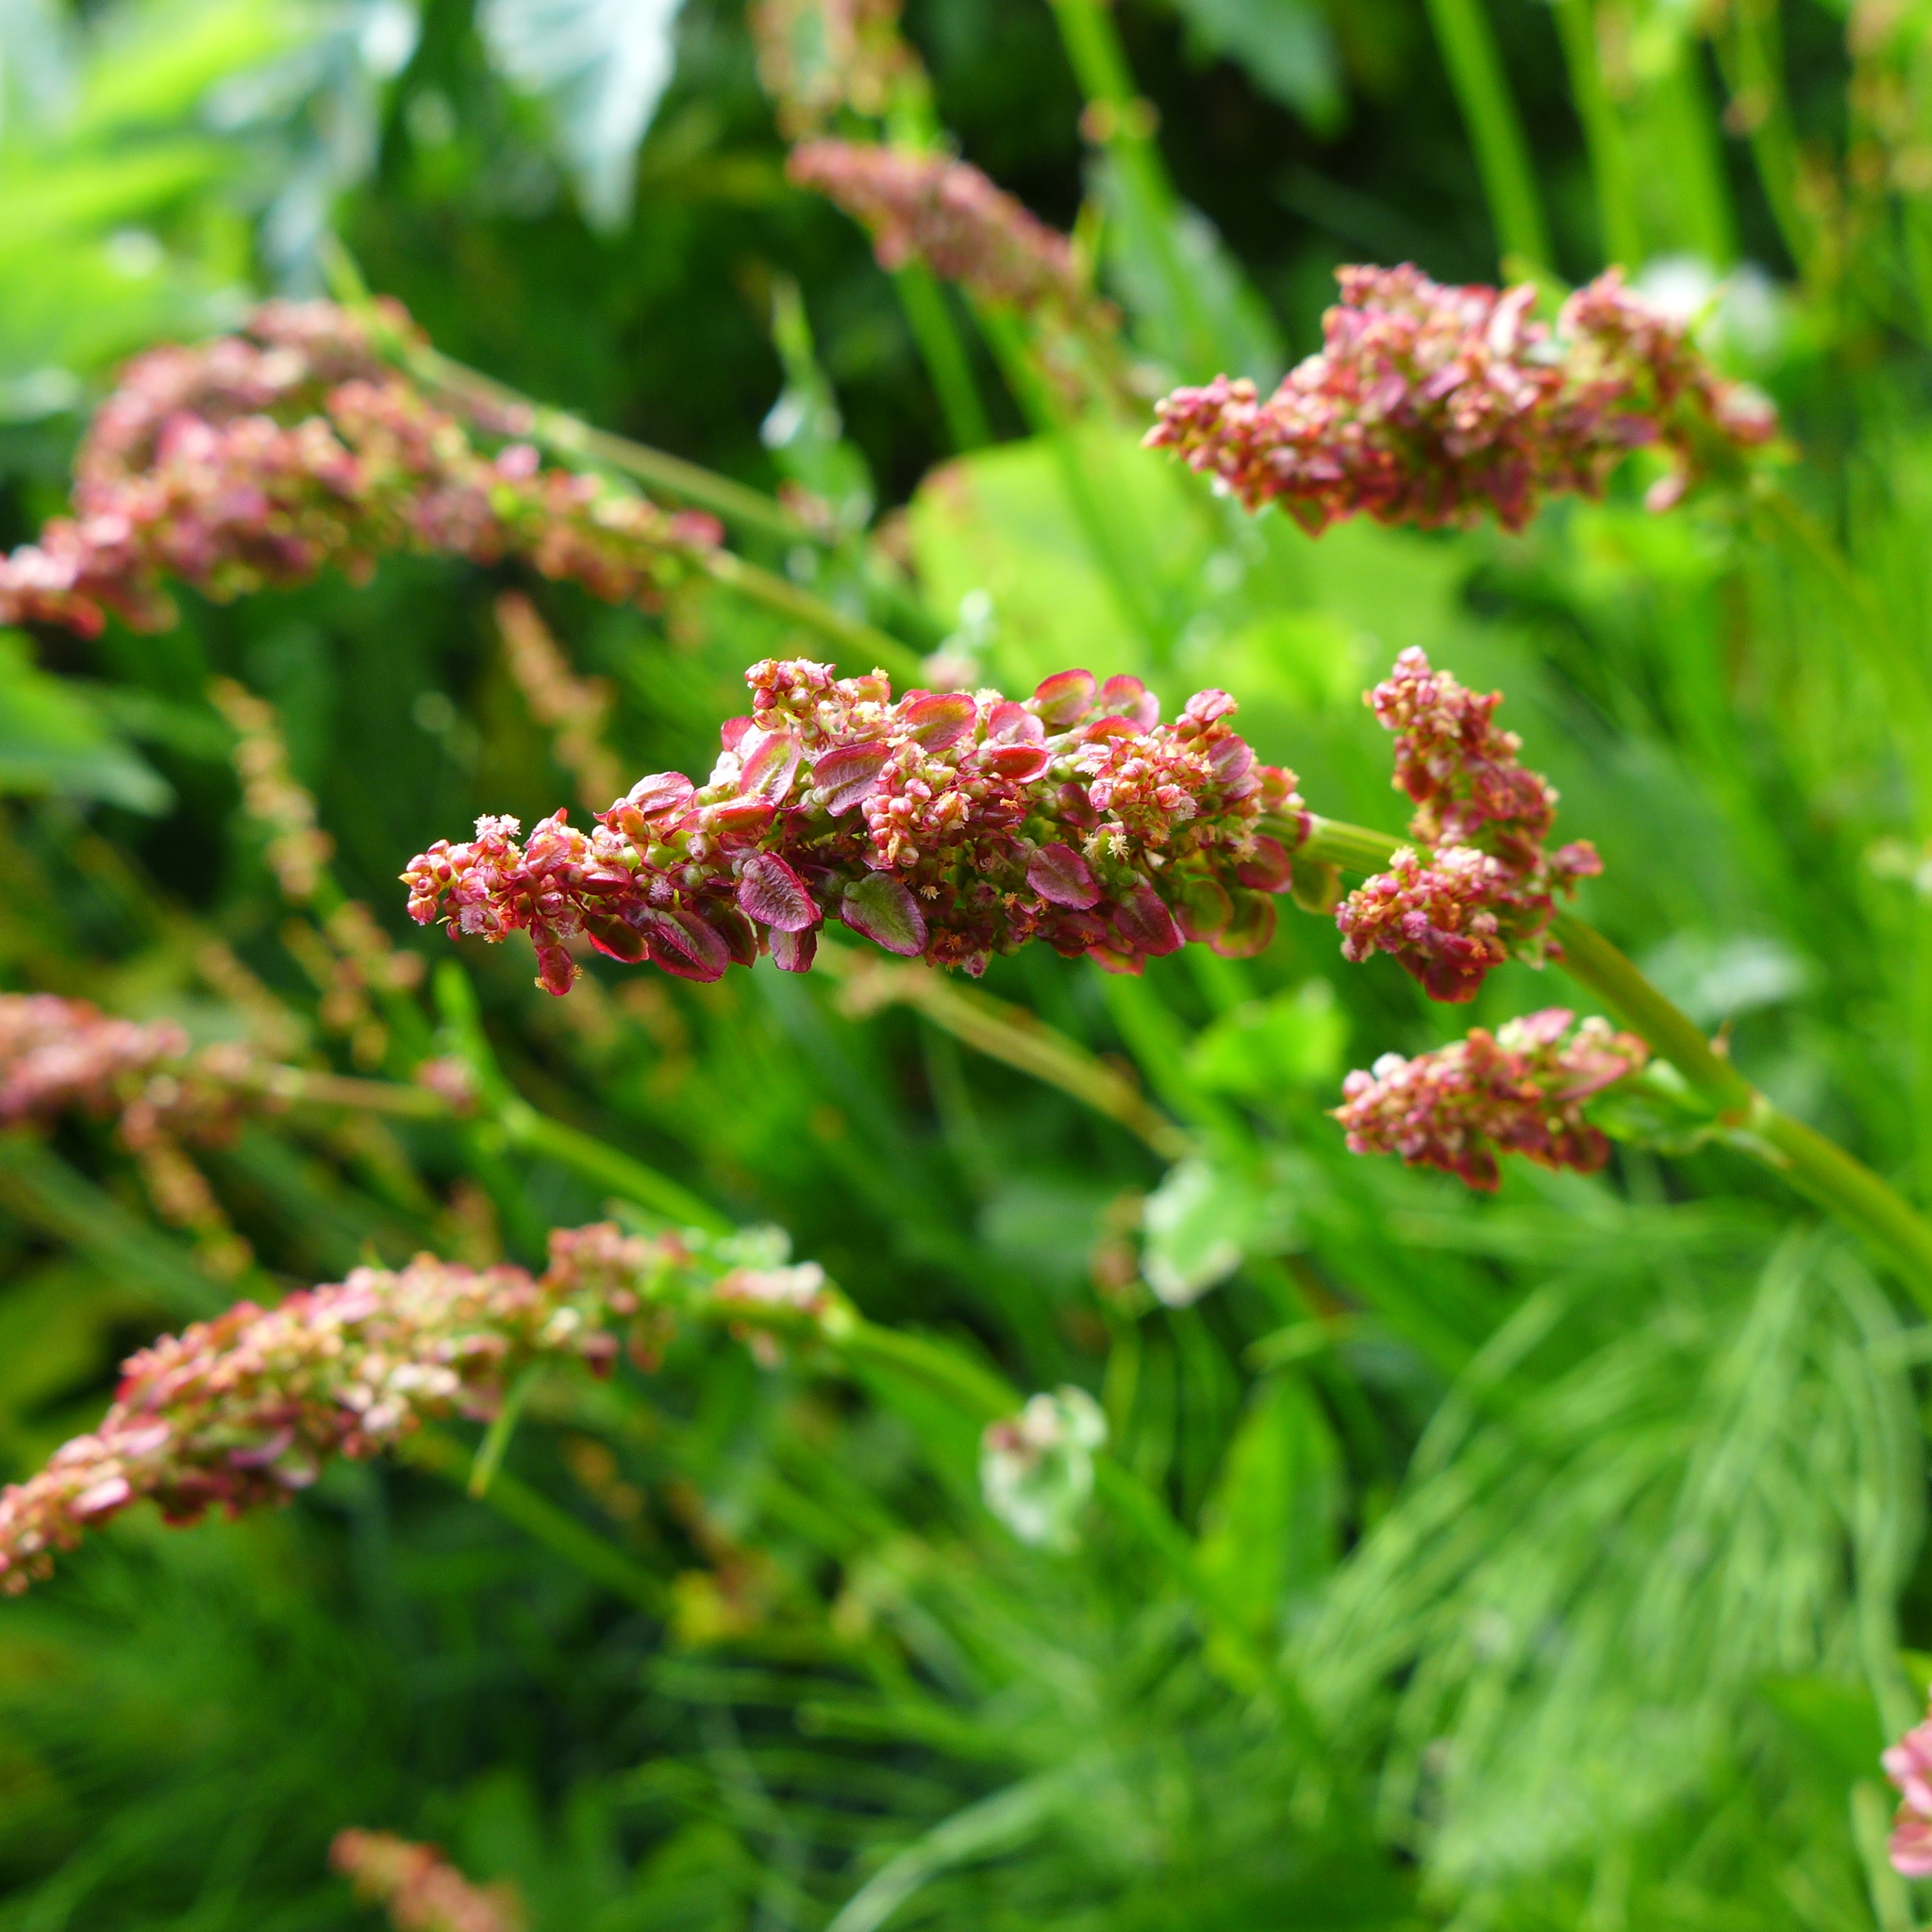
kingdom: Plantae
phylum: Tracheophyta
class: Magnoliopsida
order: Caryophyllales
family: Polygonaceae
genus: Rumex
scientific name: Rumex acetosa
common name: Garden sorrel
